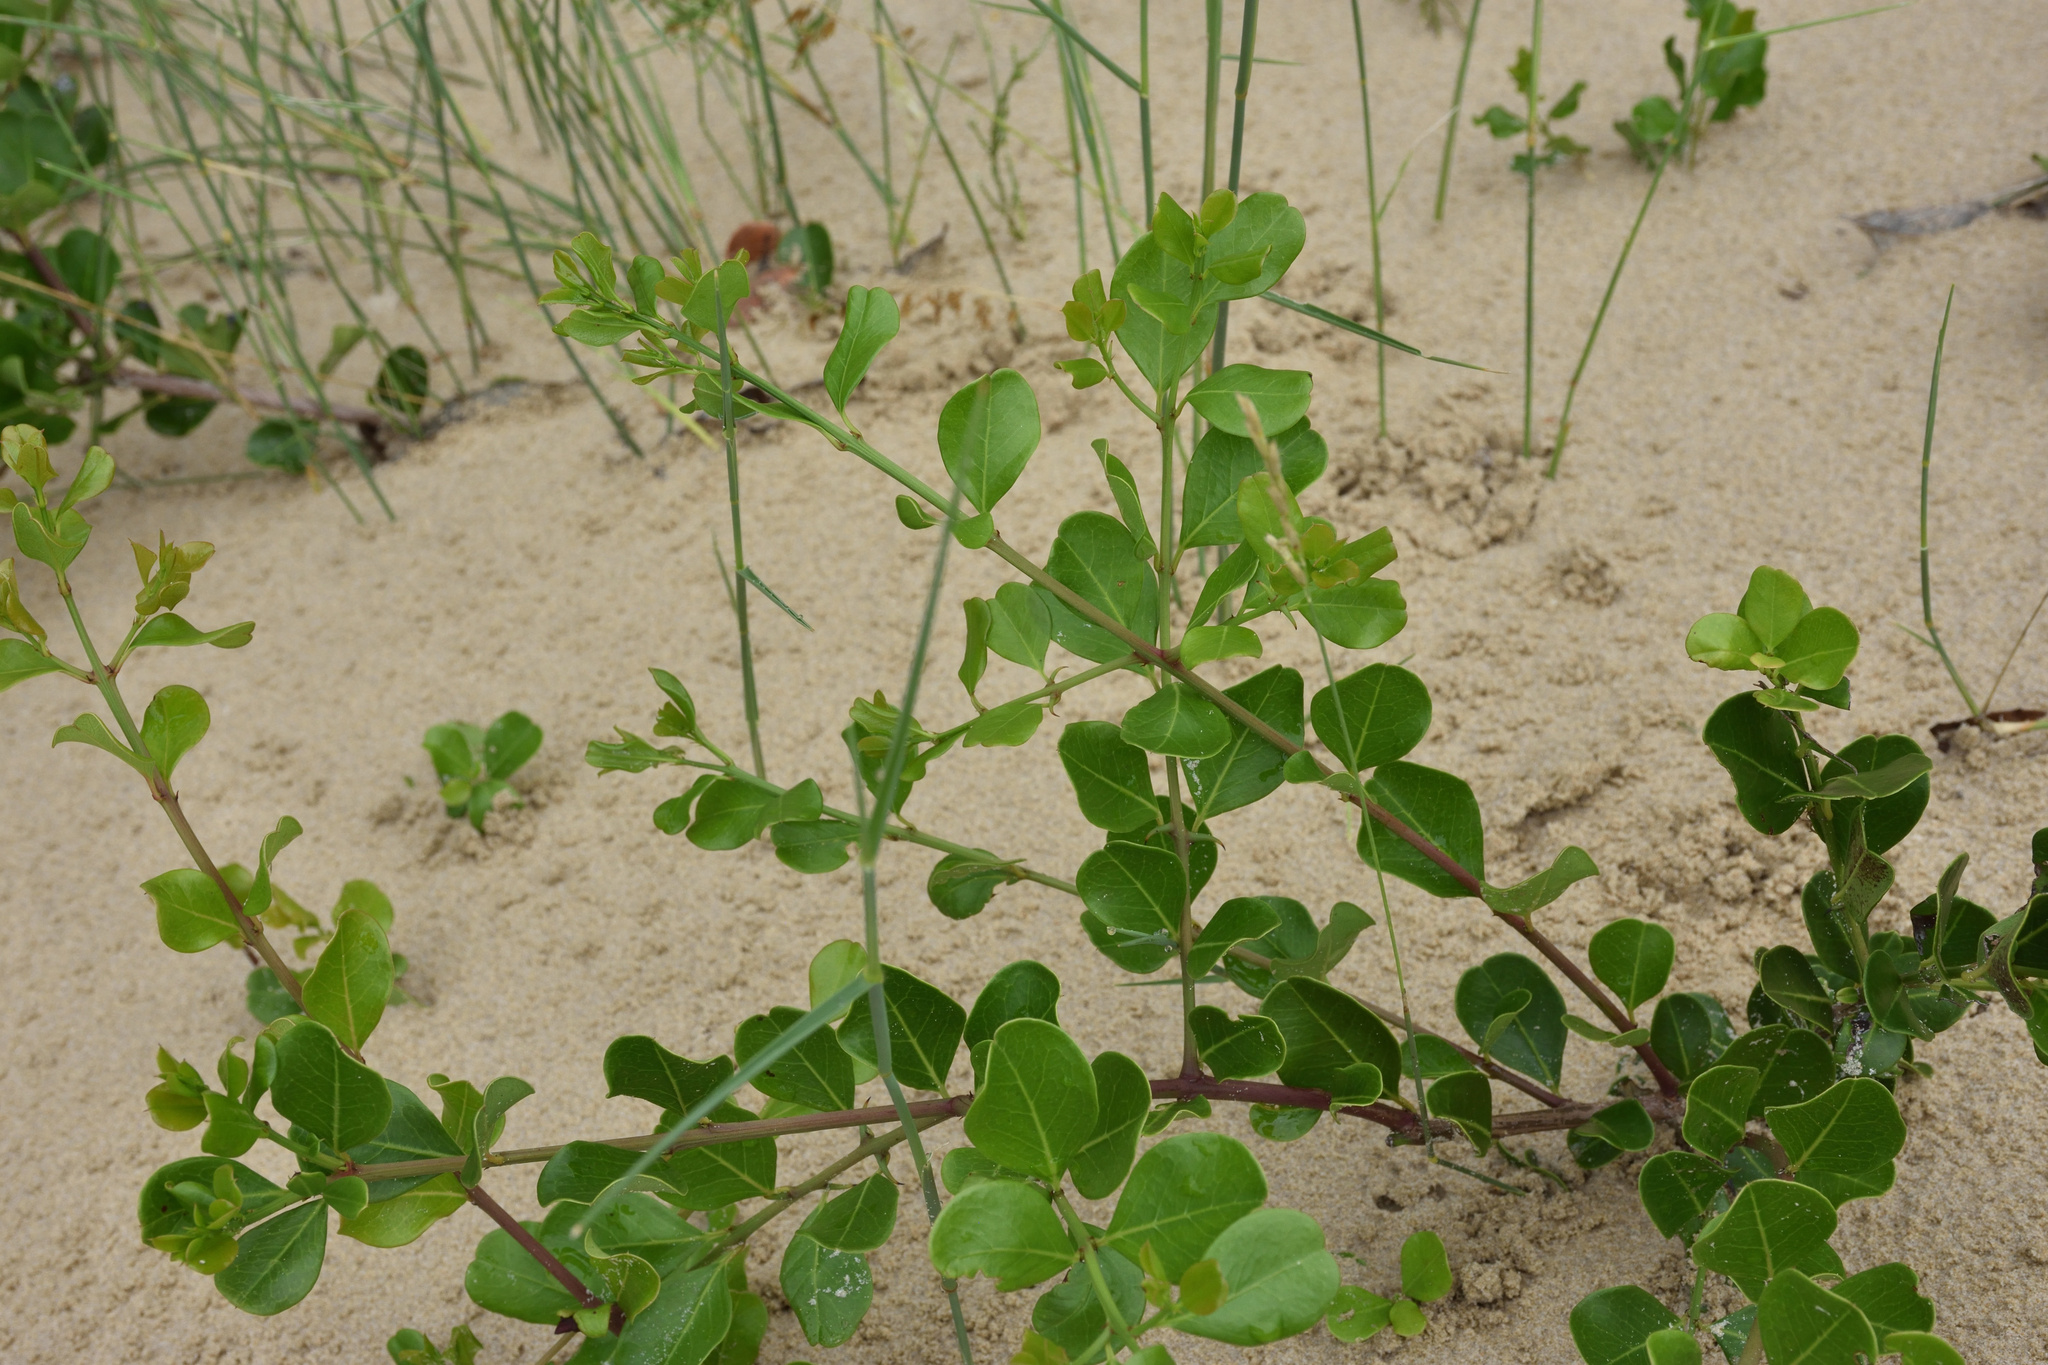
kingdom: Plantae
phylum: Tracheophyta
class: Magnoliopsida
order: Rosales
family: Rhamnaceae
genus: Scutia
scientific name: Scutia myrtina
